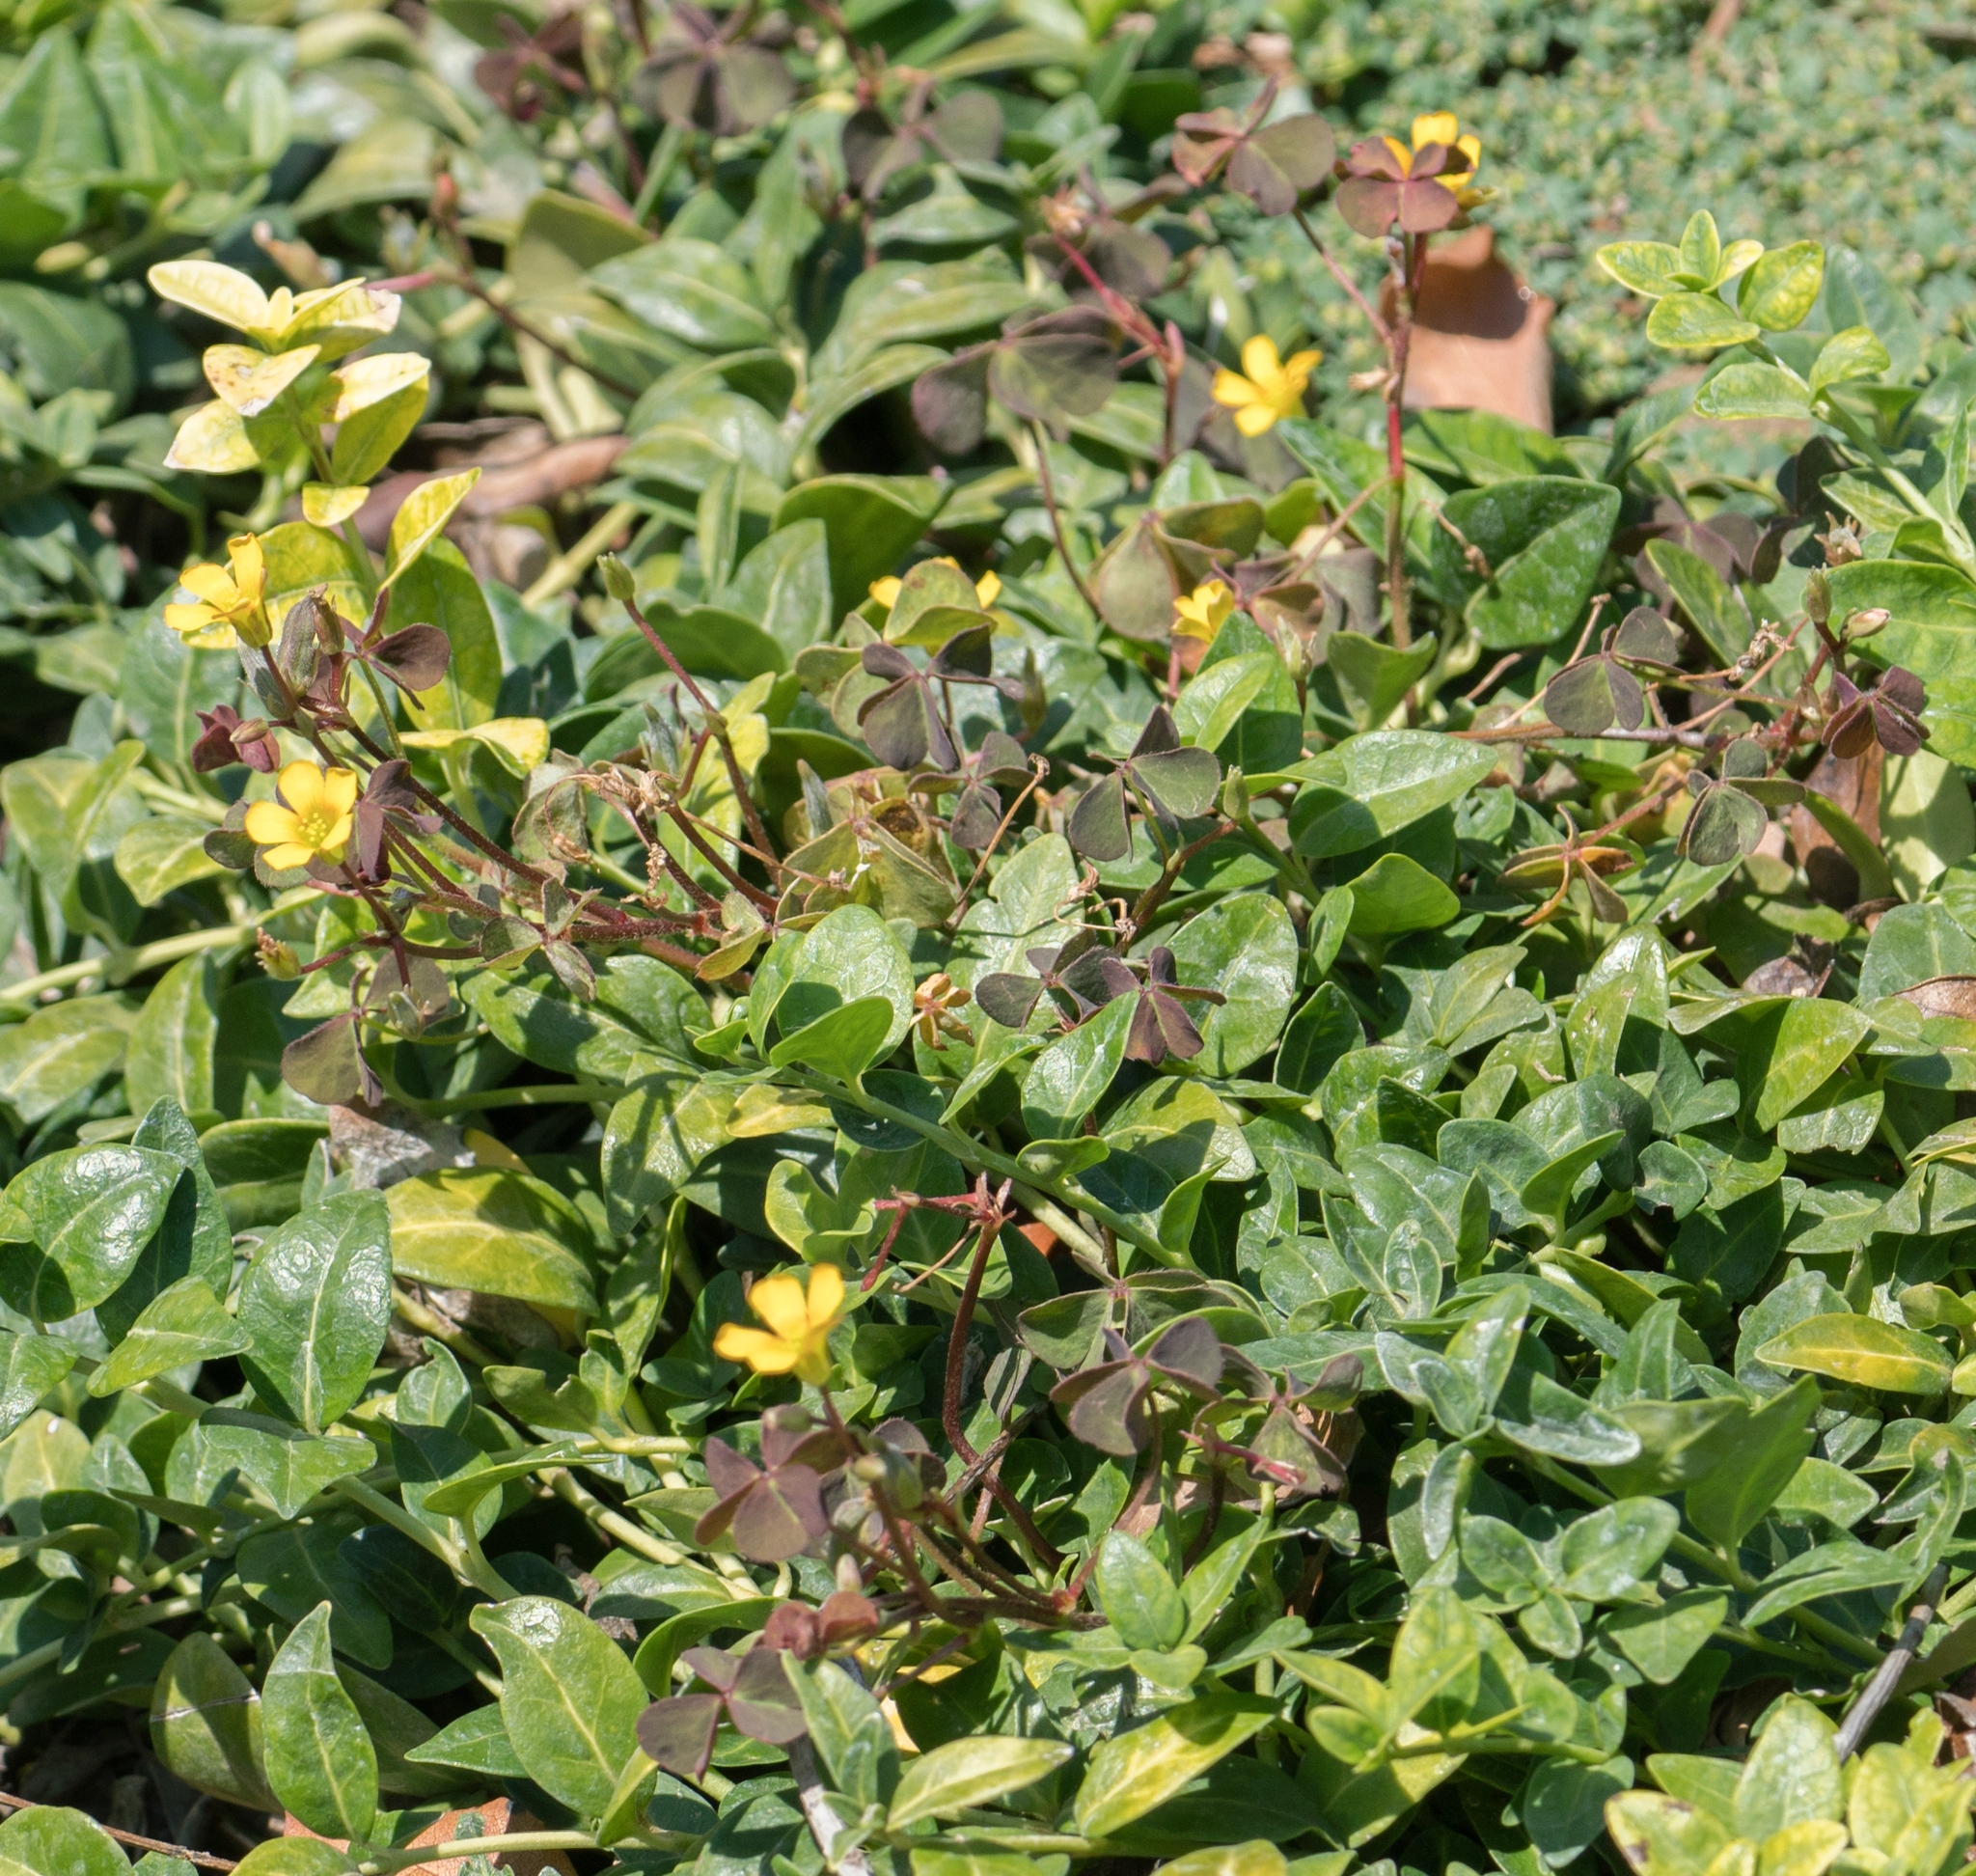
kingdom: Plantae
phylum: Tracheophyta
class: Magnoliopsida
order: Oxalidales
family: Oxalidaceae
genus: Oxalis
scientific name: Oxalis corniculata
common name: Procumbent yellow-sorrel
